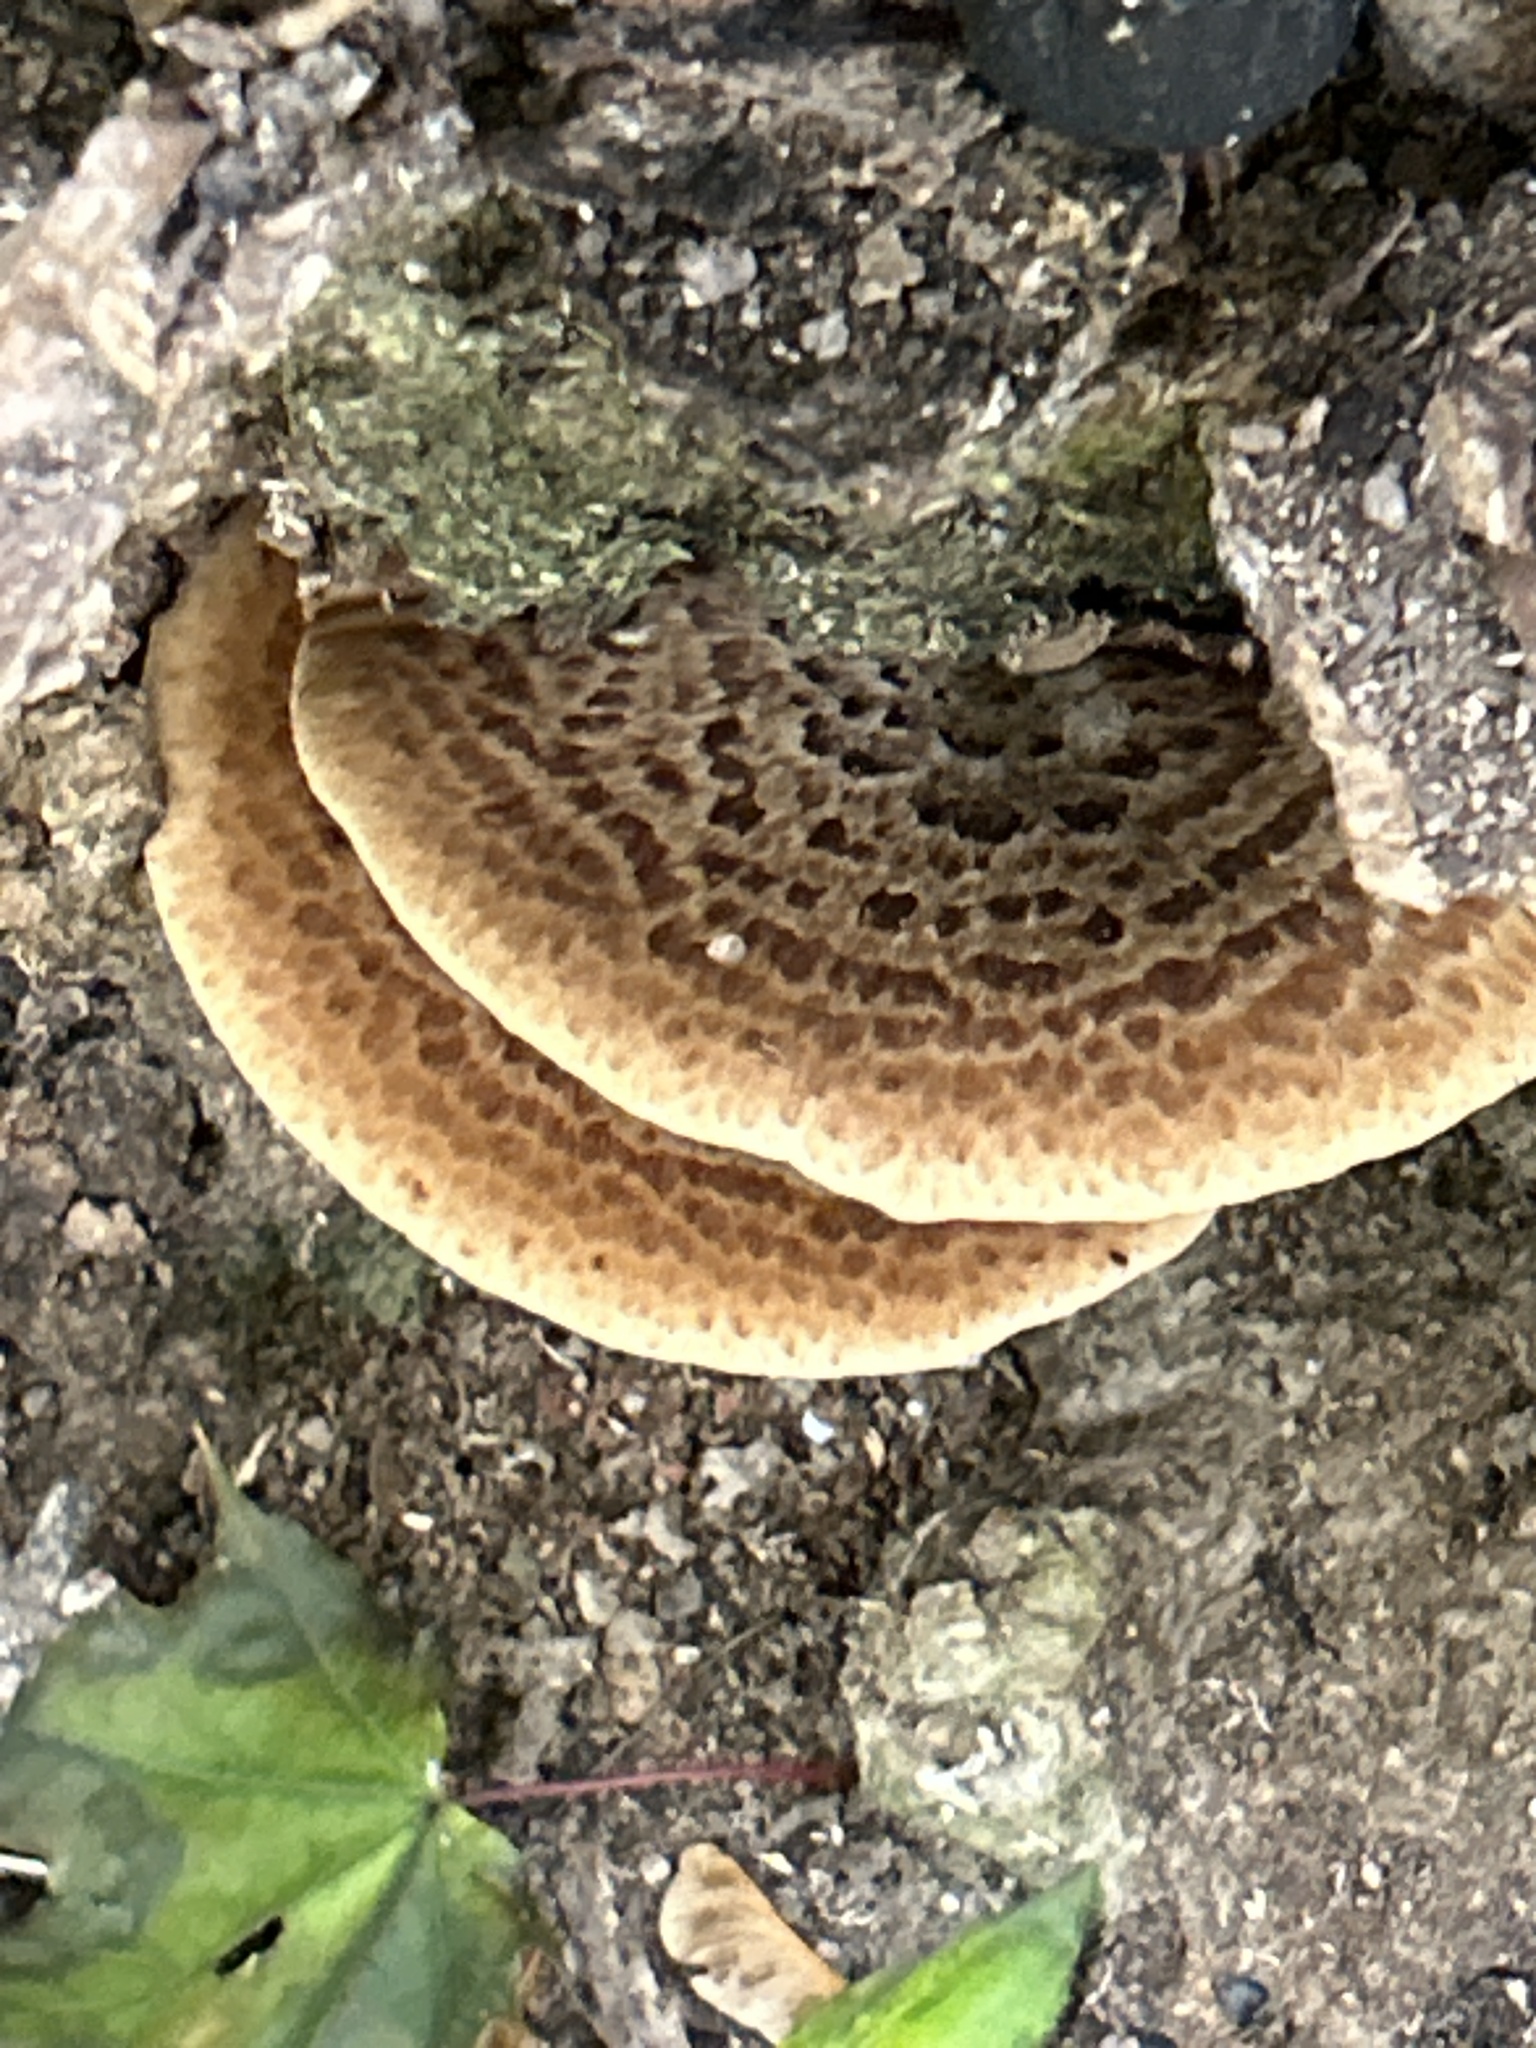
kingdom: Fungi
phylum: Basidiomycota
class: Agaricomycetes
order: Polyporales
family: Polyporaceae
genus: Cerioporus
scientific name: Cerioporus squamosus
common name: Dryad's saddle
